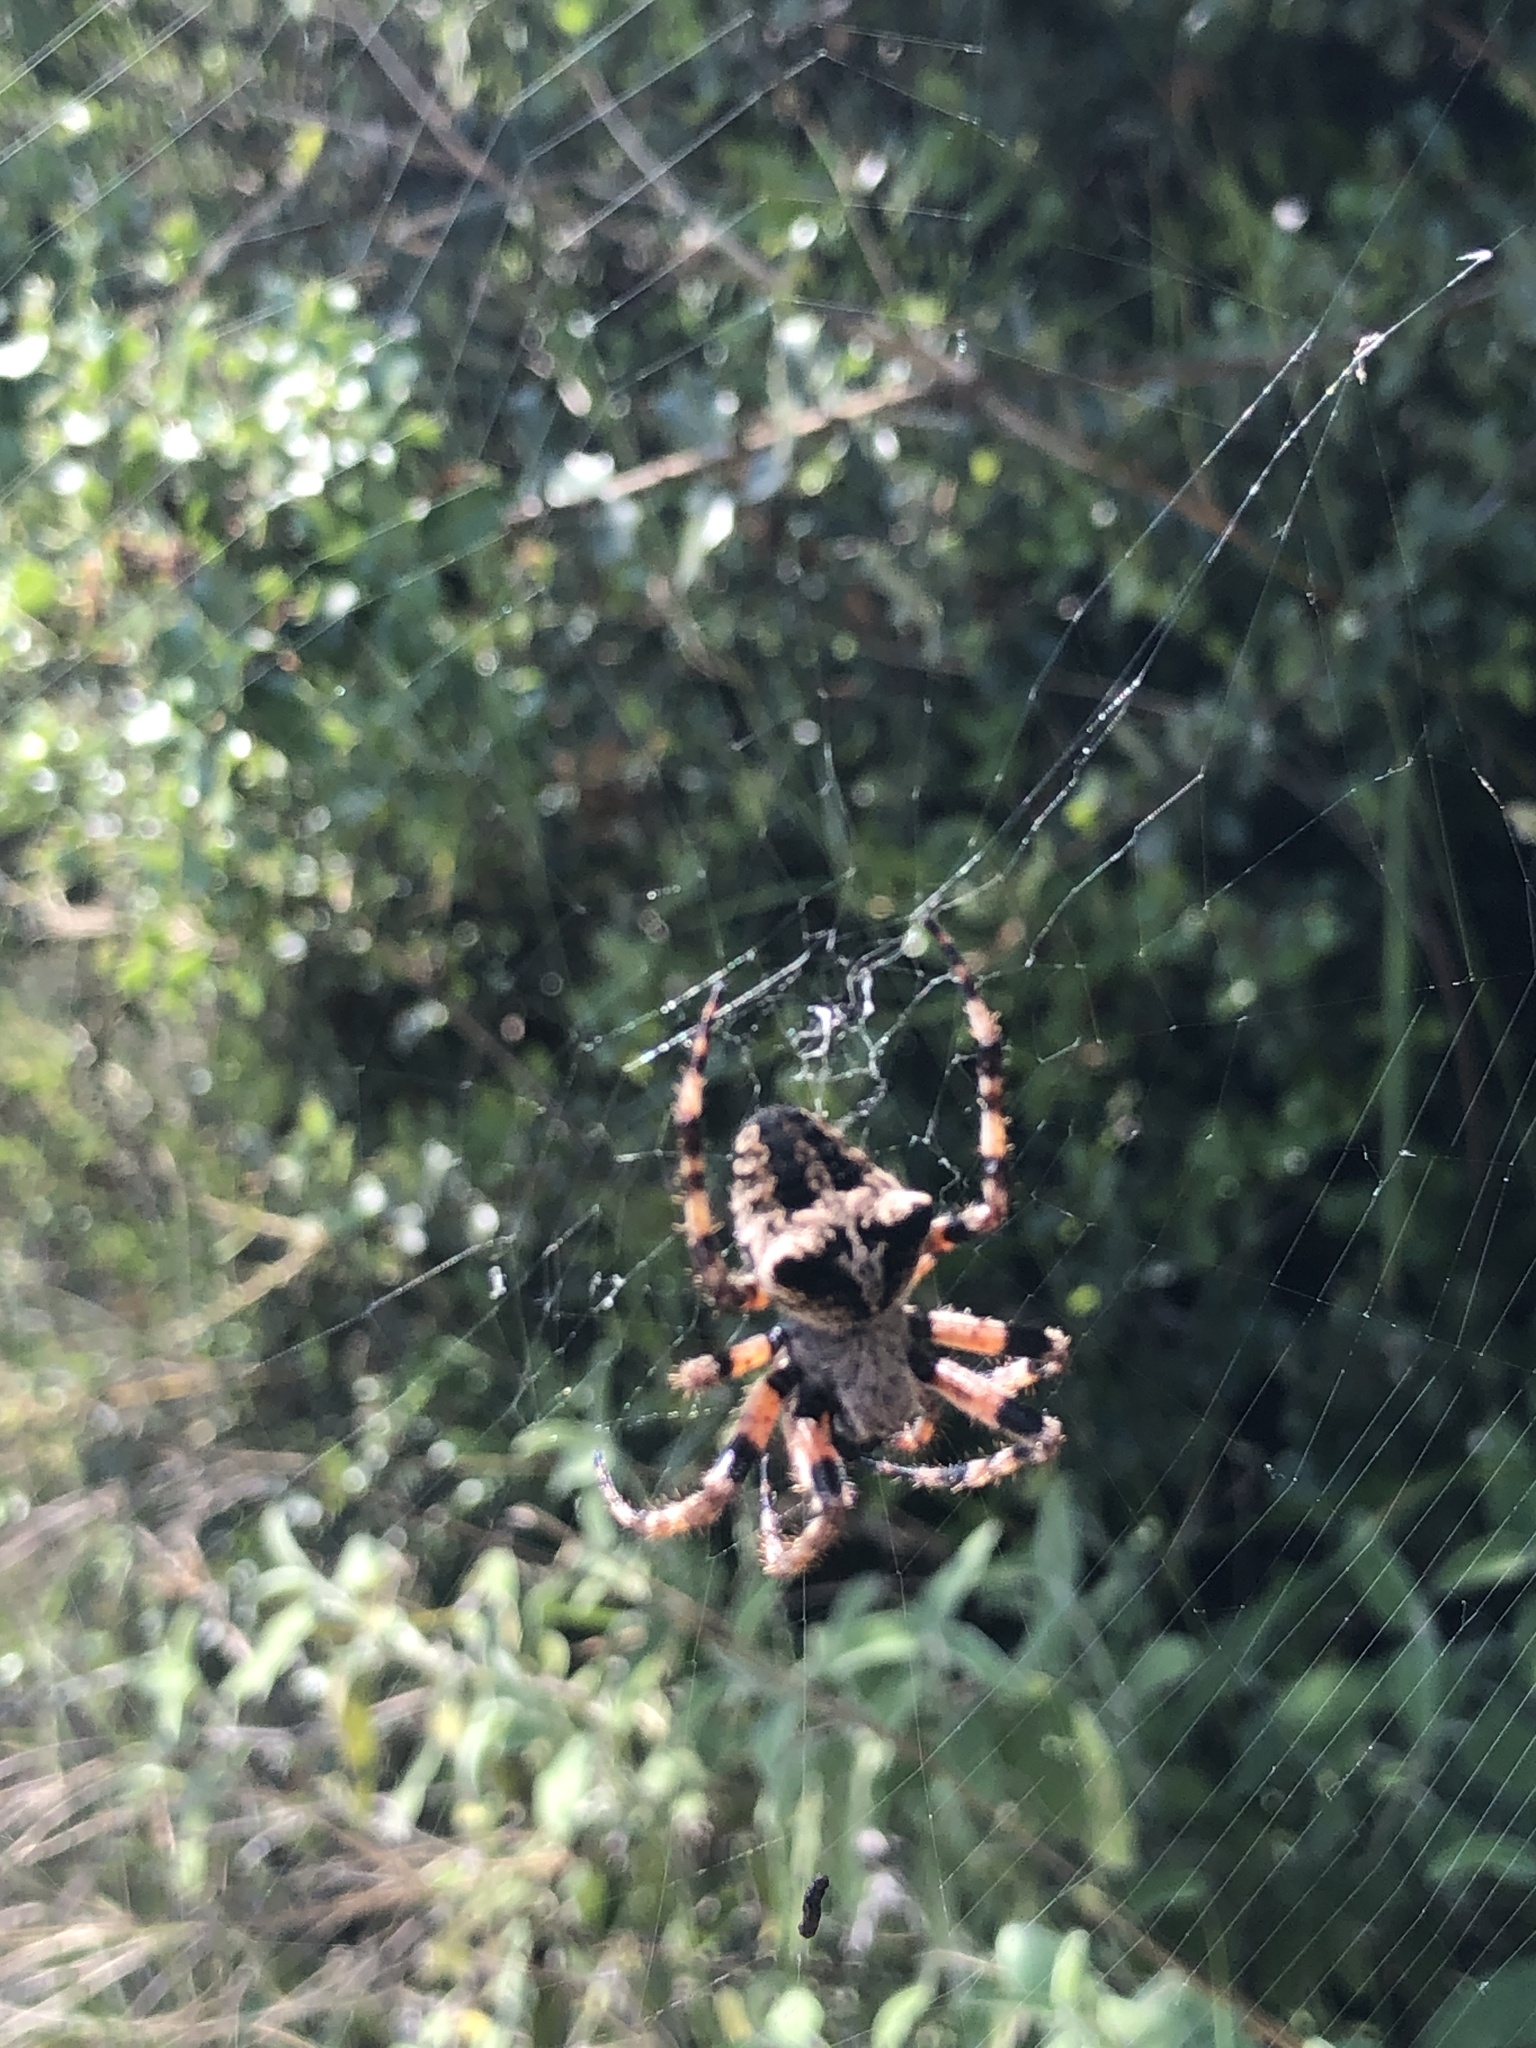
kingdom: Animalia
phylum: Arthropoda
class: Arachnida
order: Araneae
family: Araneidae
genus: Araneus
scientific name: Araneus
